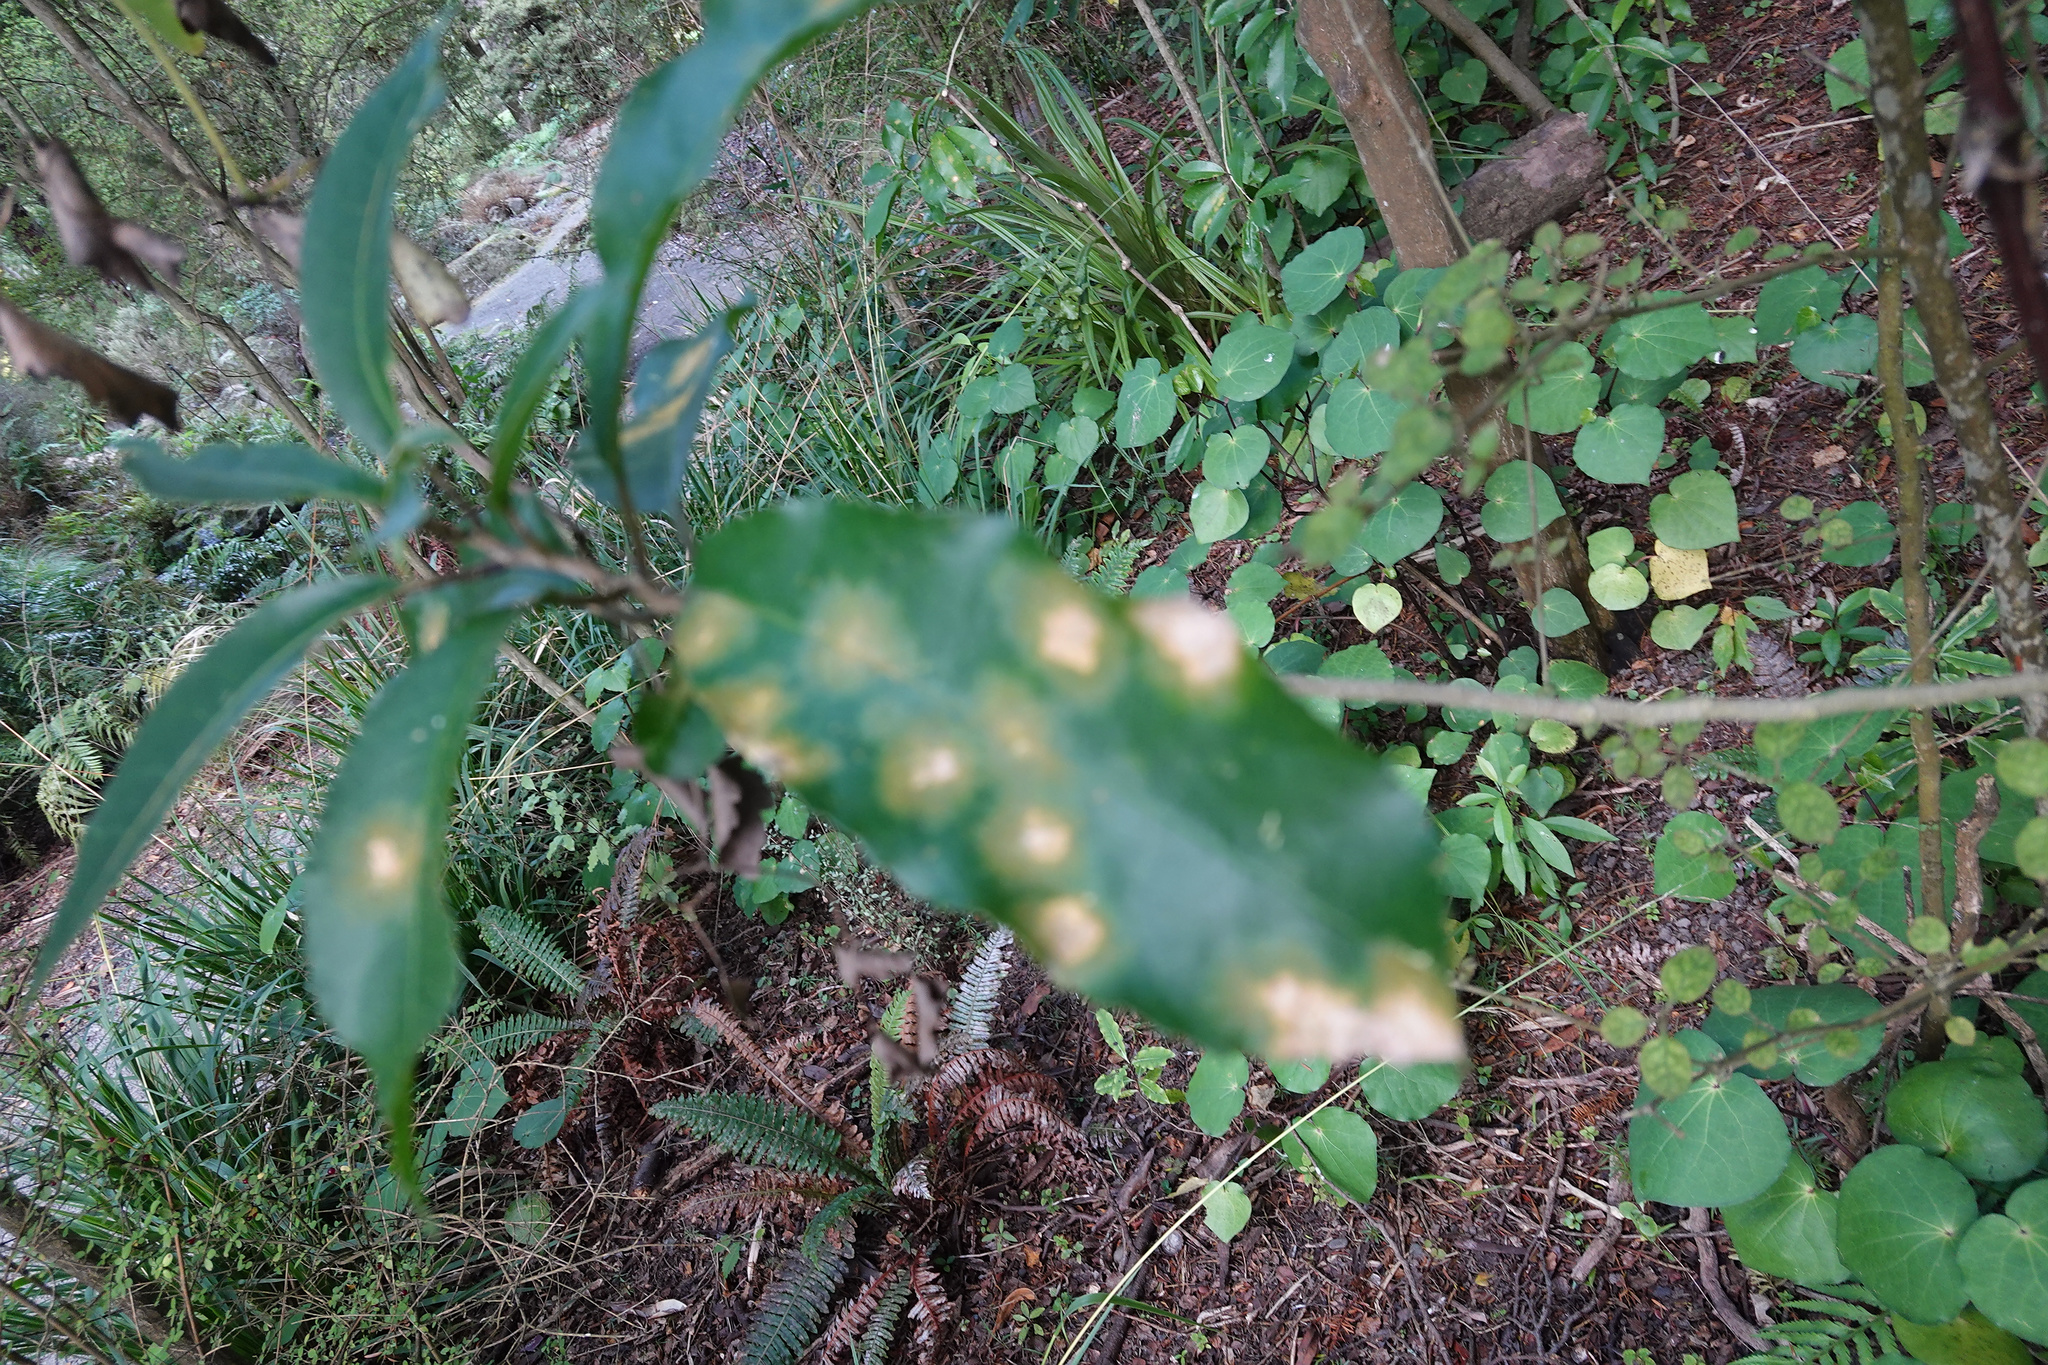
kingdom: Plantae
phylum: Tracheophyta
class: Magnoliopsida
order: Malpighiales
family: Violaceae
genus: Melicytus
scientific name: Melicytus ramiflorus
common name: Mahoe
